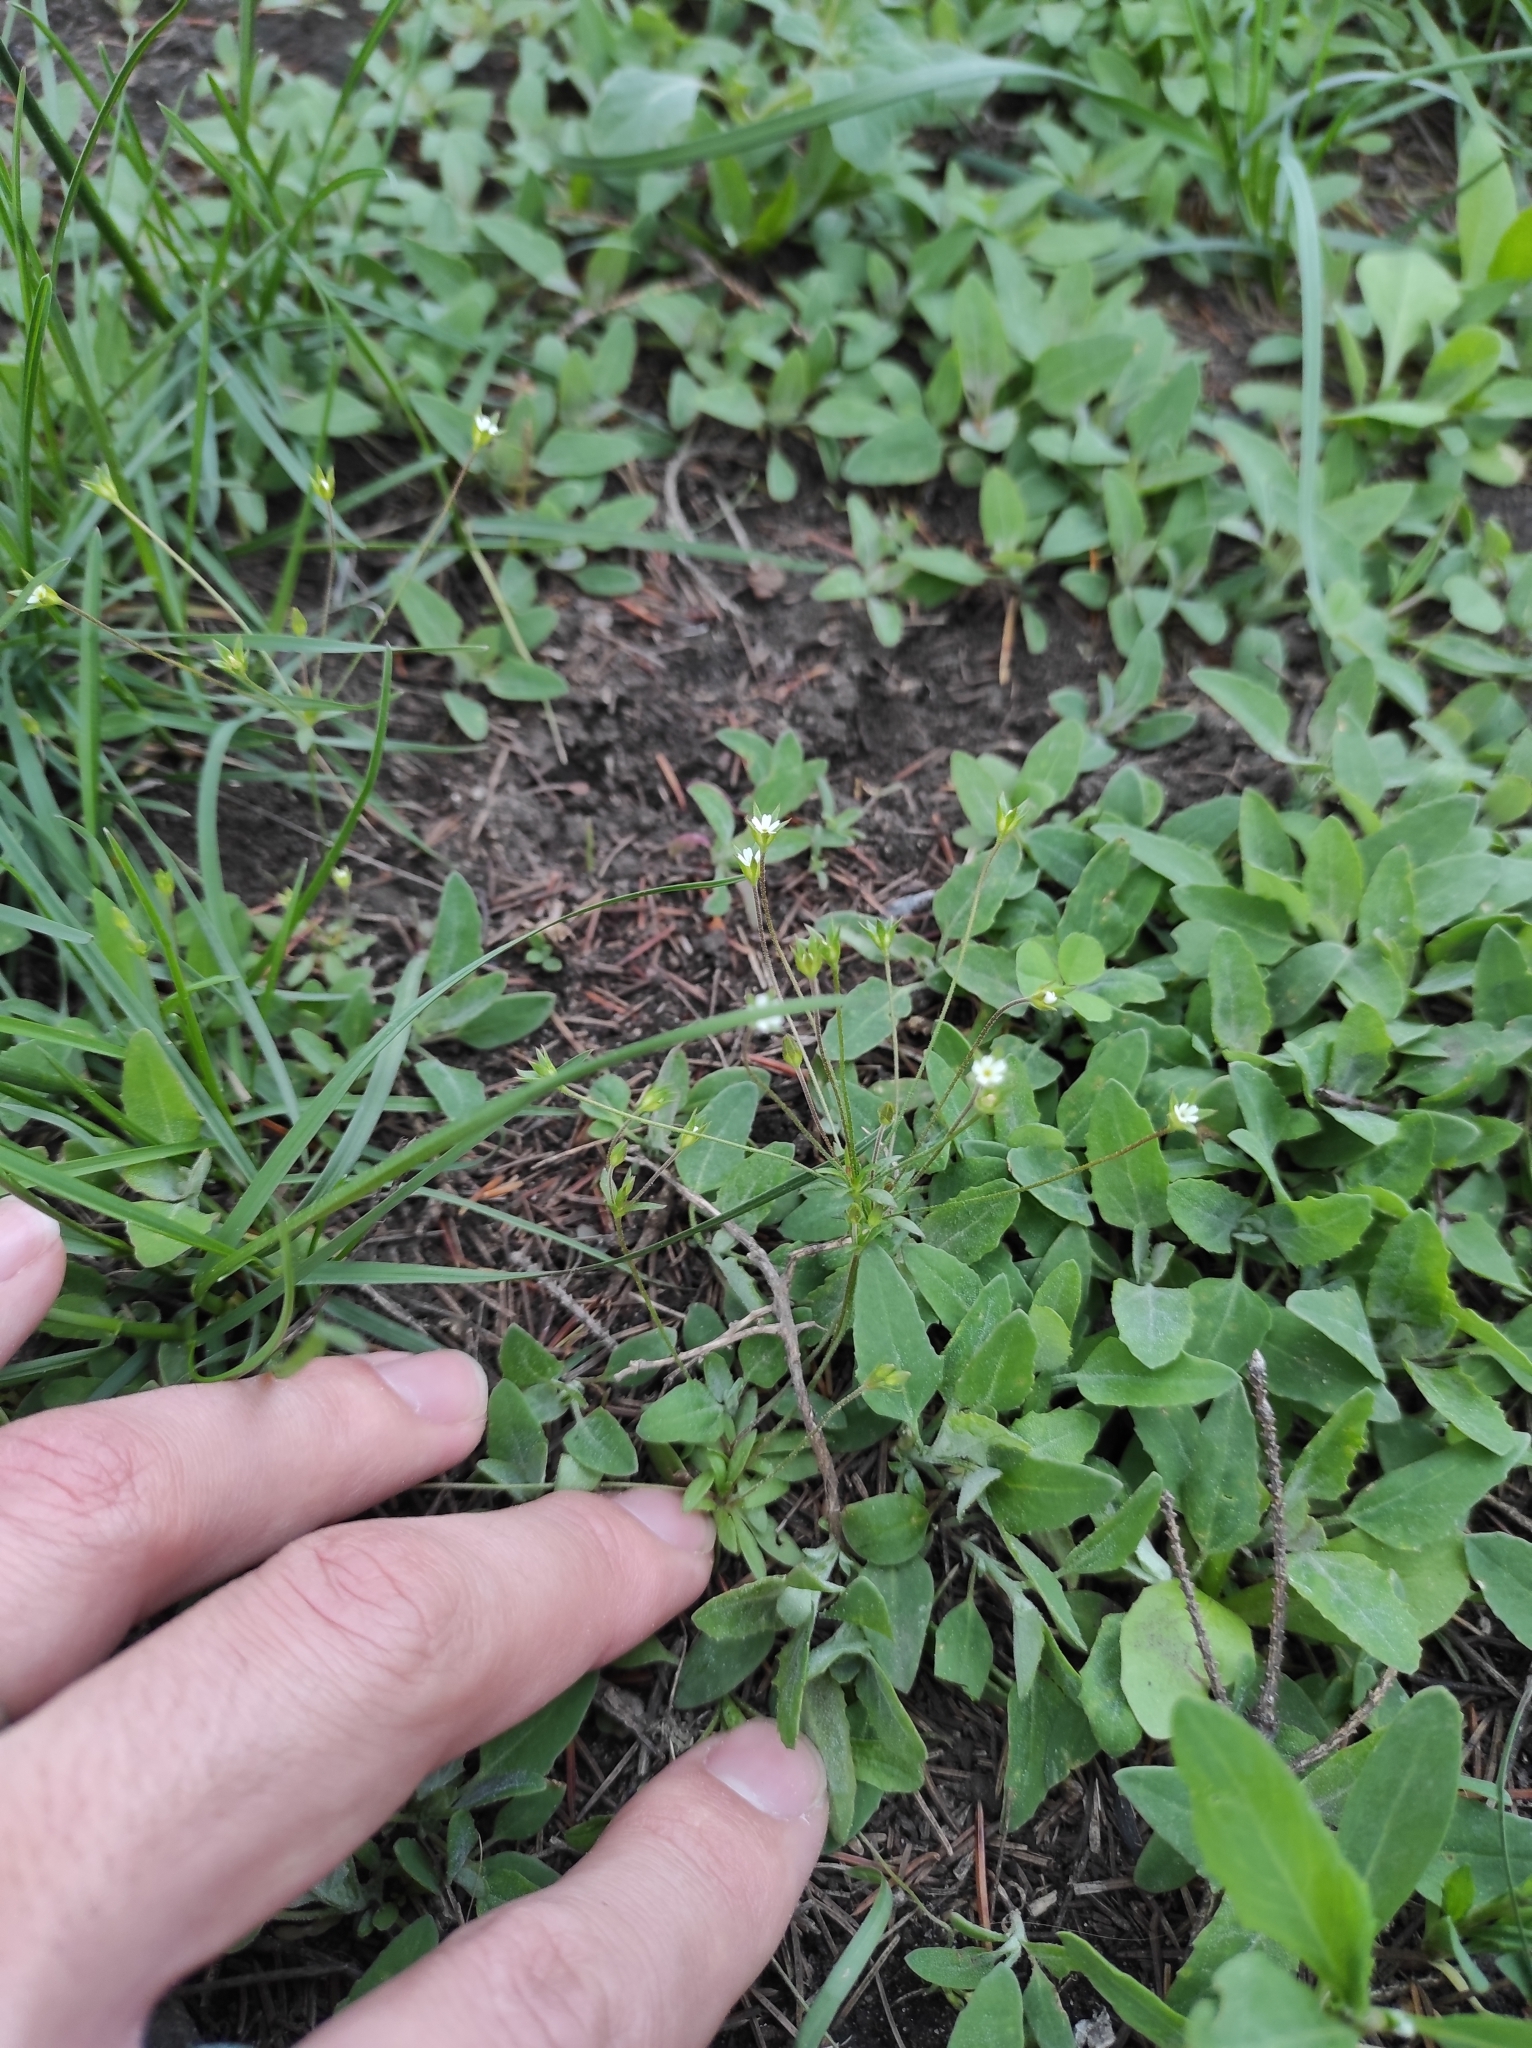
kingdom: Plantae
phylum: Tracheophyta
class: Magnoliopsida
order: Ericales
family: Primulaceae
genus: Androsace
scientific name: Androsace elongata
